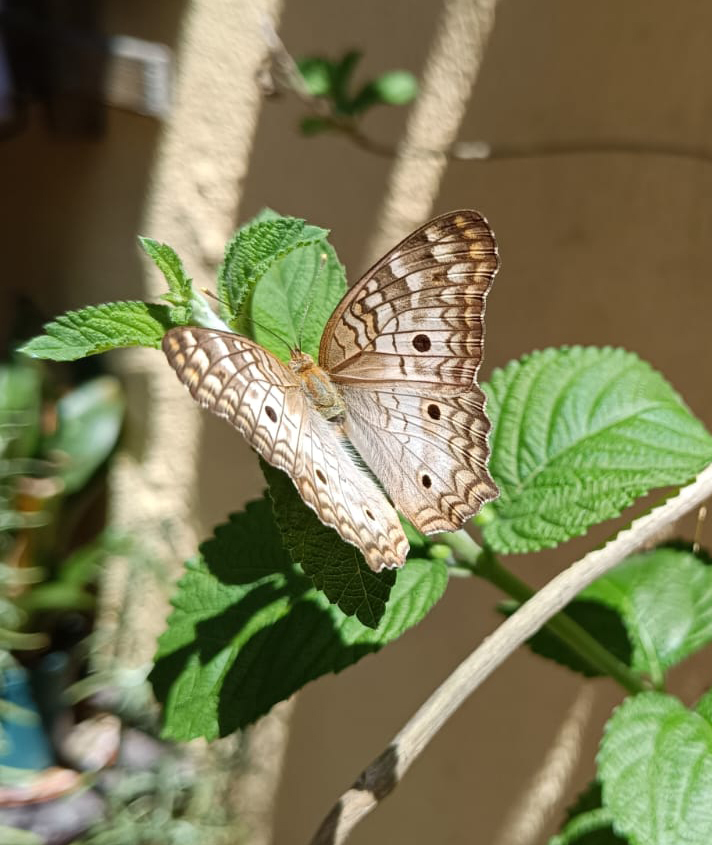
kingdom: Animalia
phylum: Arthropoda
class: Insecta
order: Lepidoptera
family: Nymphalidae
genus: Anartia
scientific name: Anartia jatrophae
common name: White peacock
